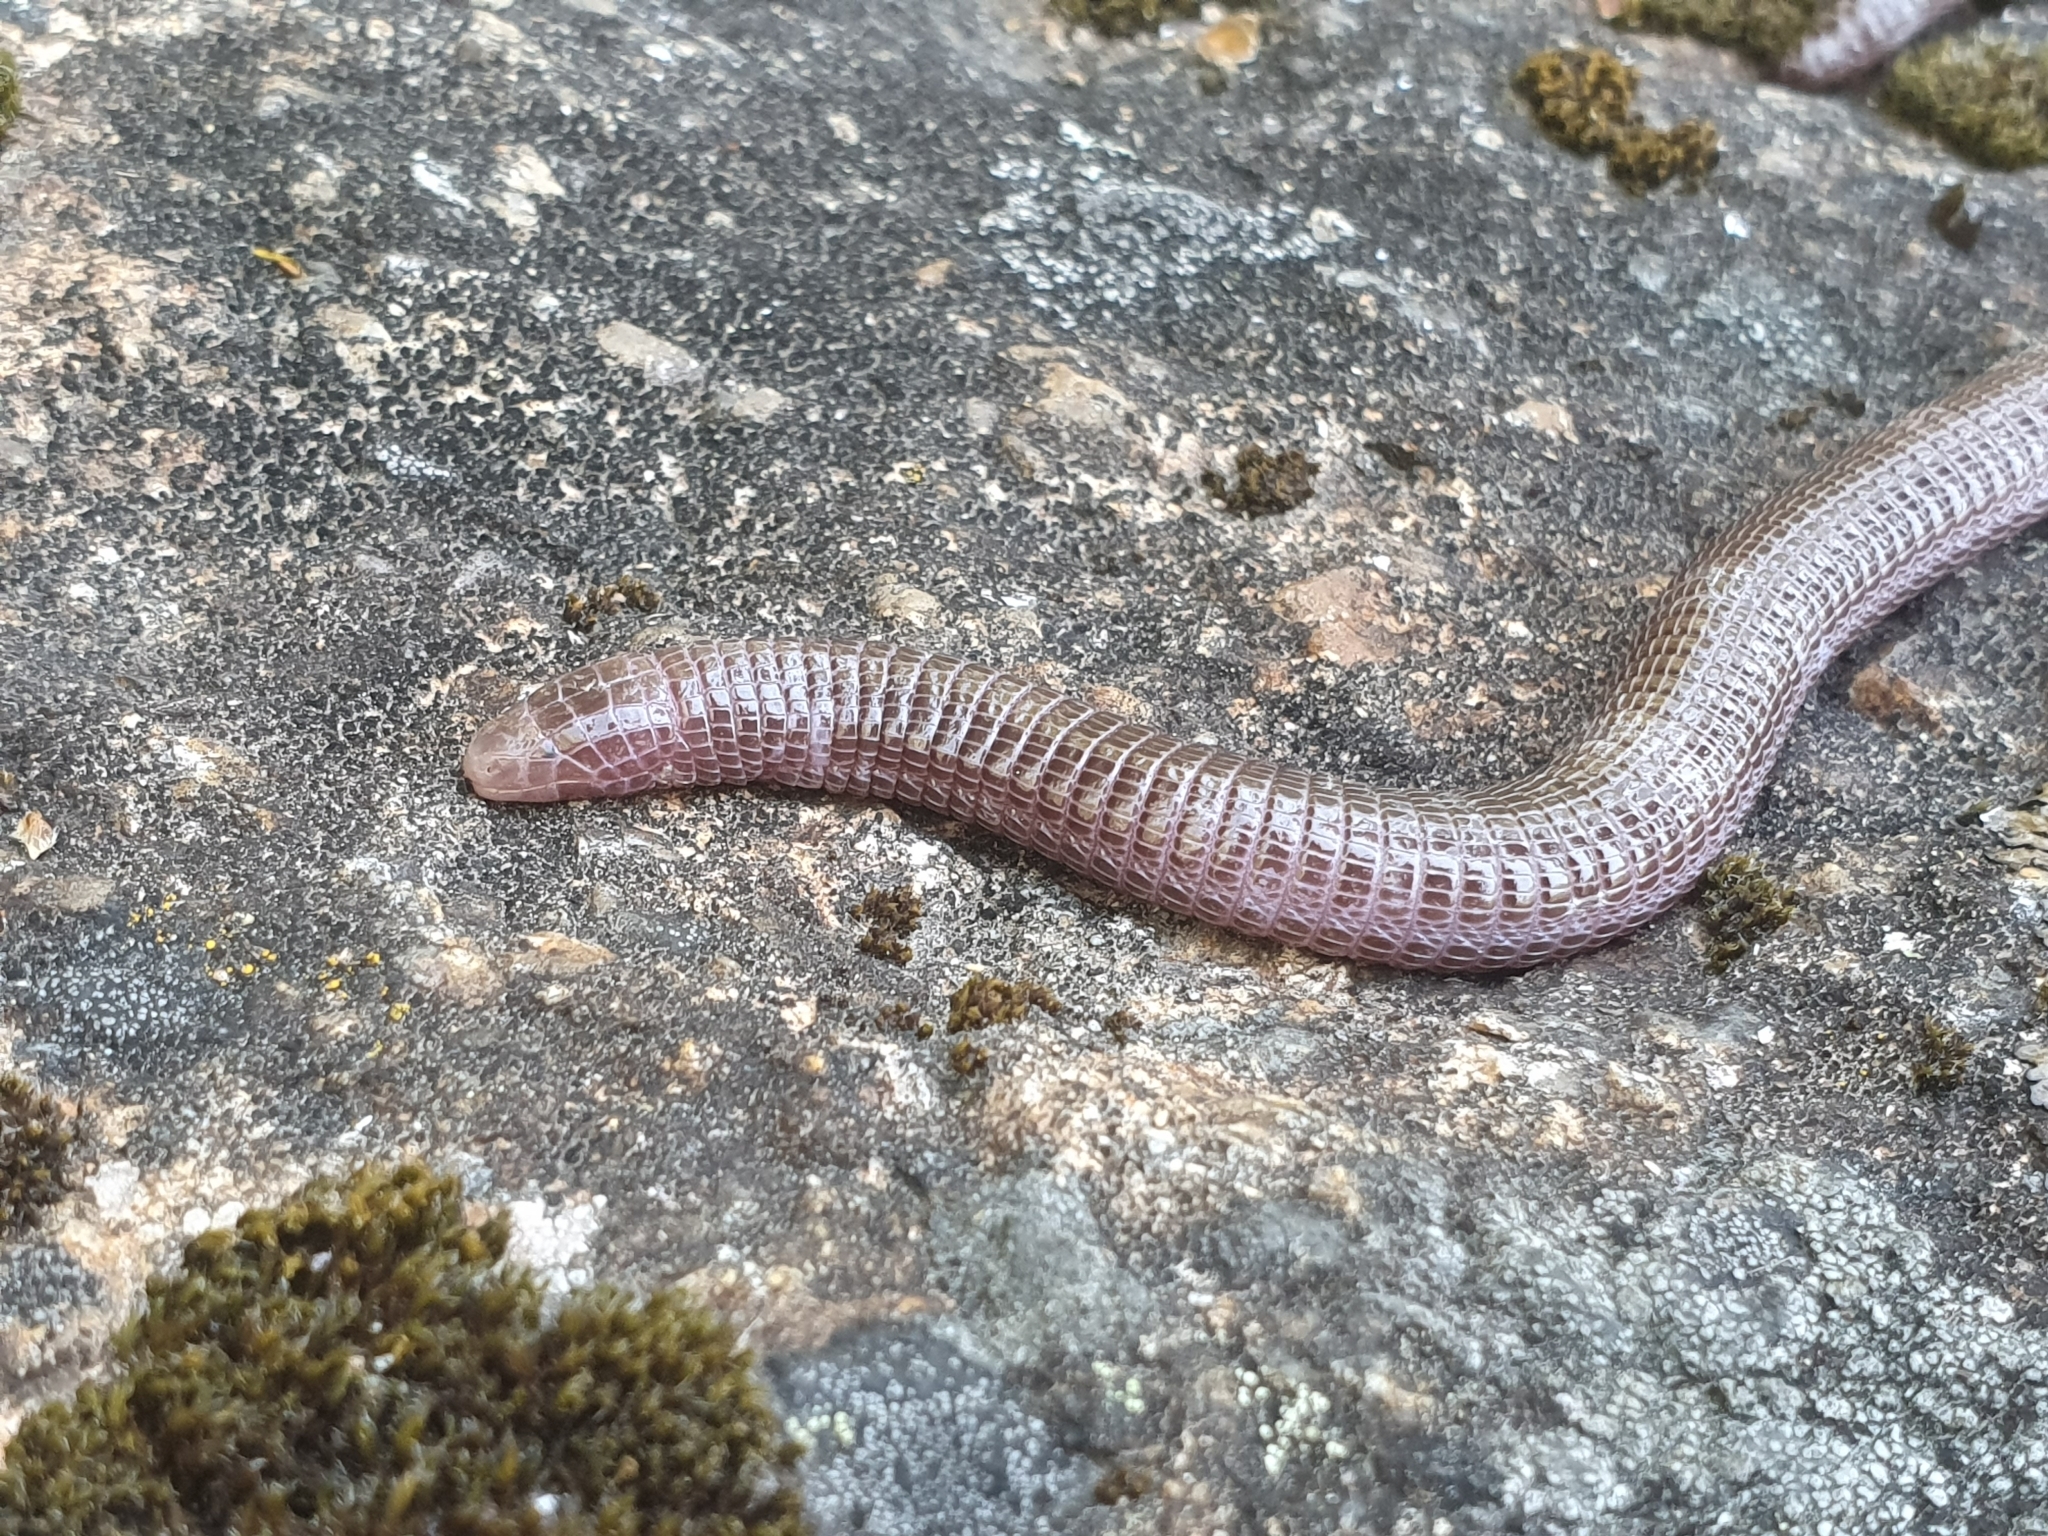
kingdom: Animalia
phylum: Chordata
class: Squamata
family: Blanidae
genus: Blanus
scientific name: Blanus vandellii
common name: Vandelli's worm lizard
